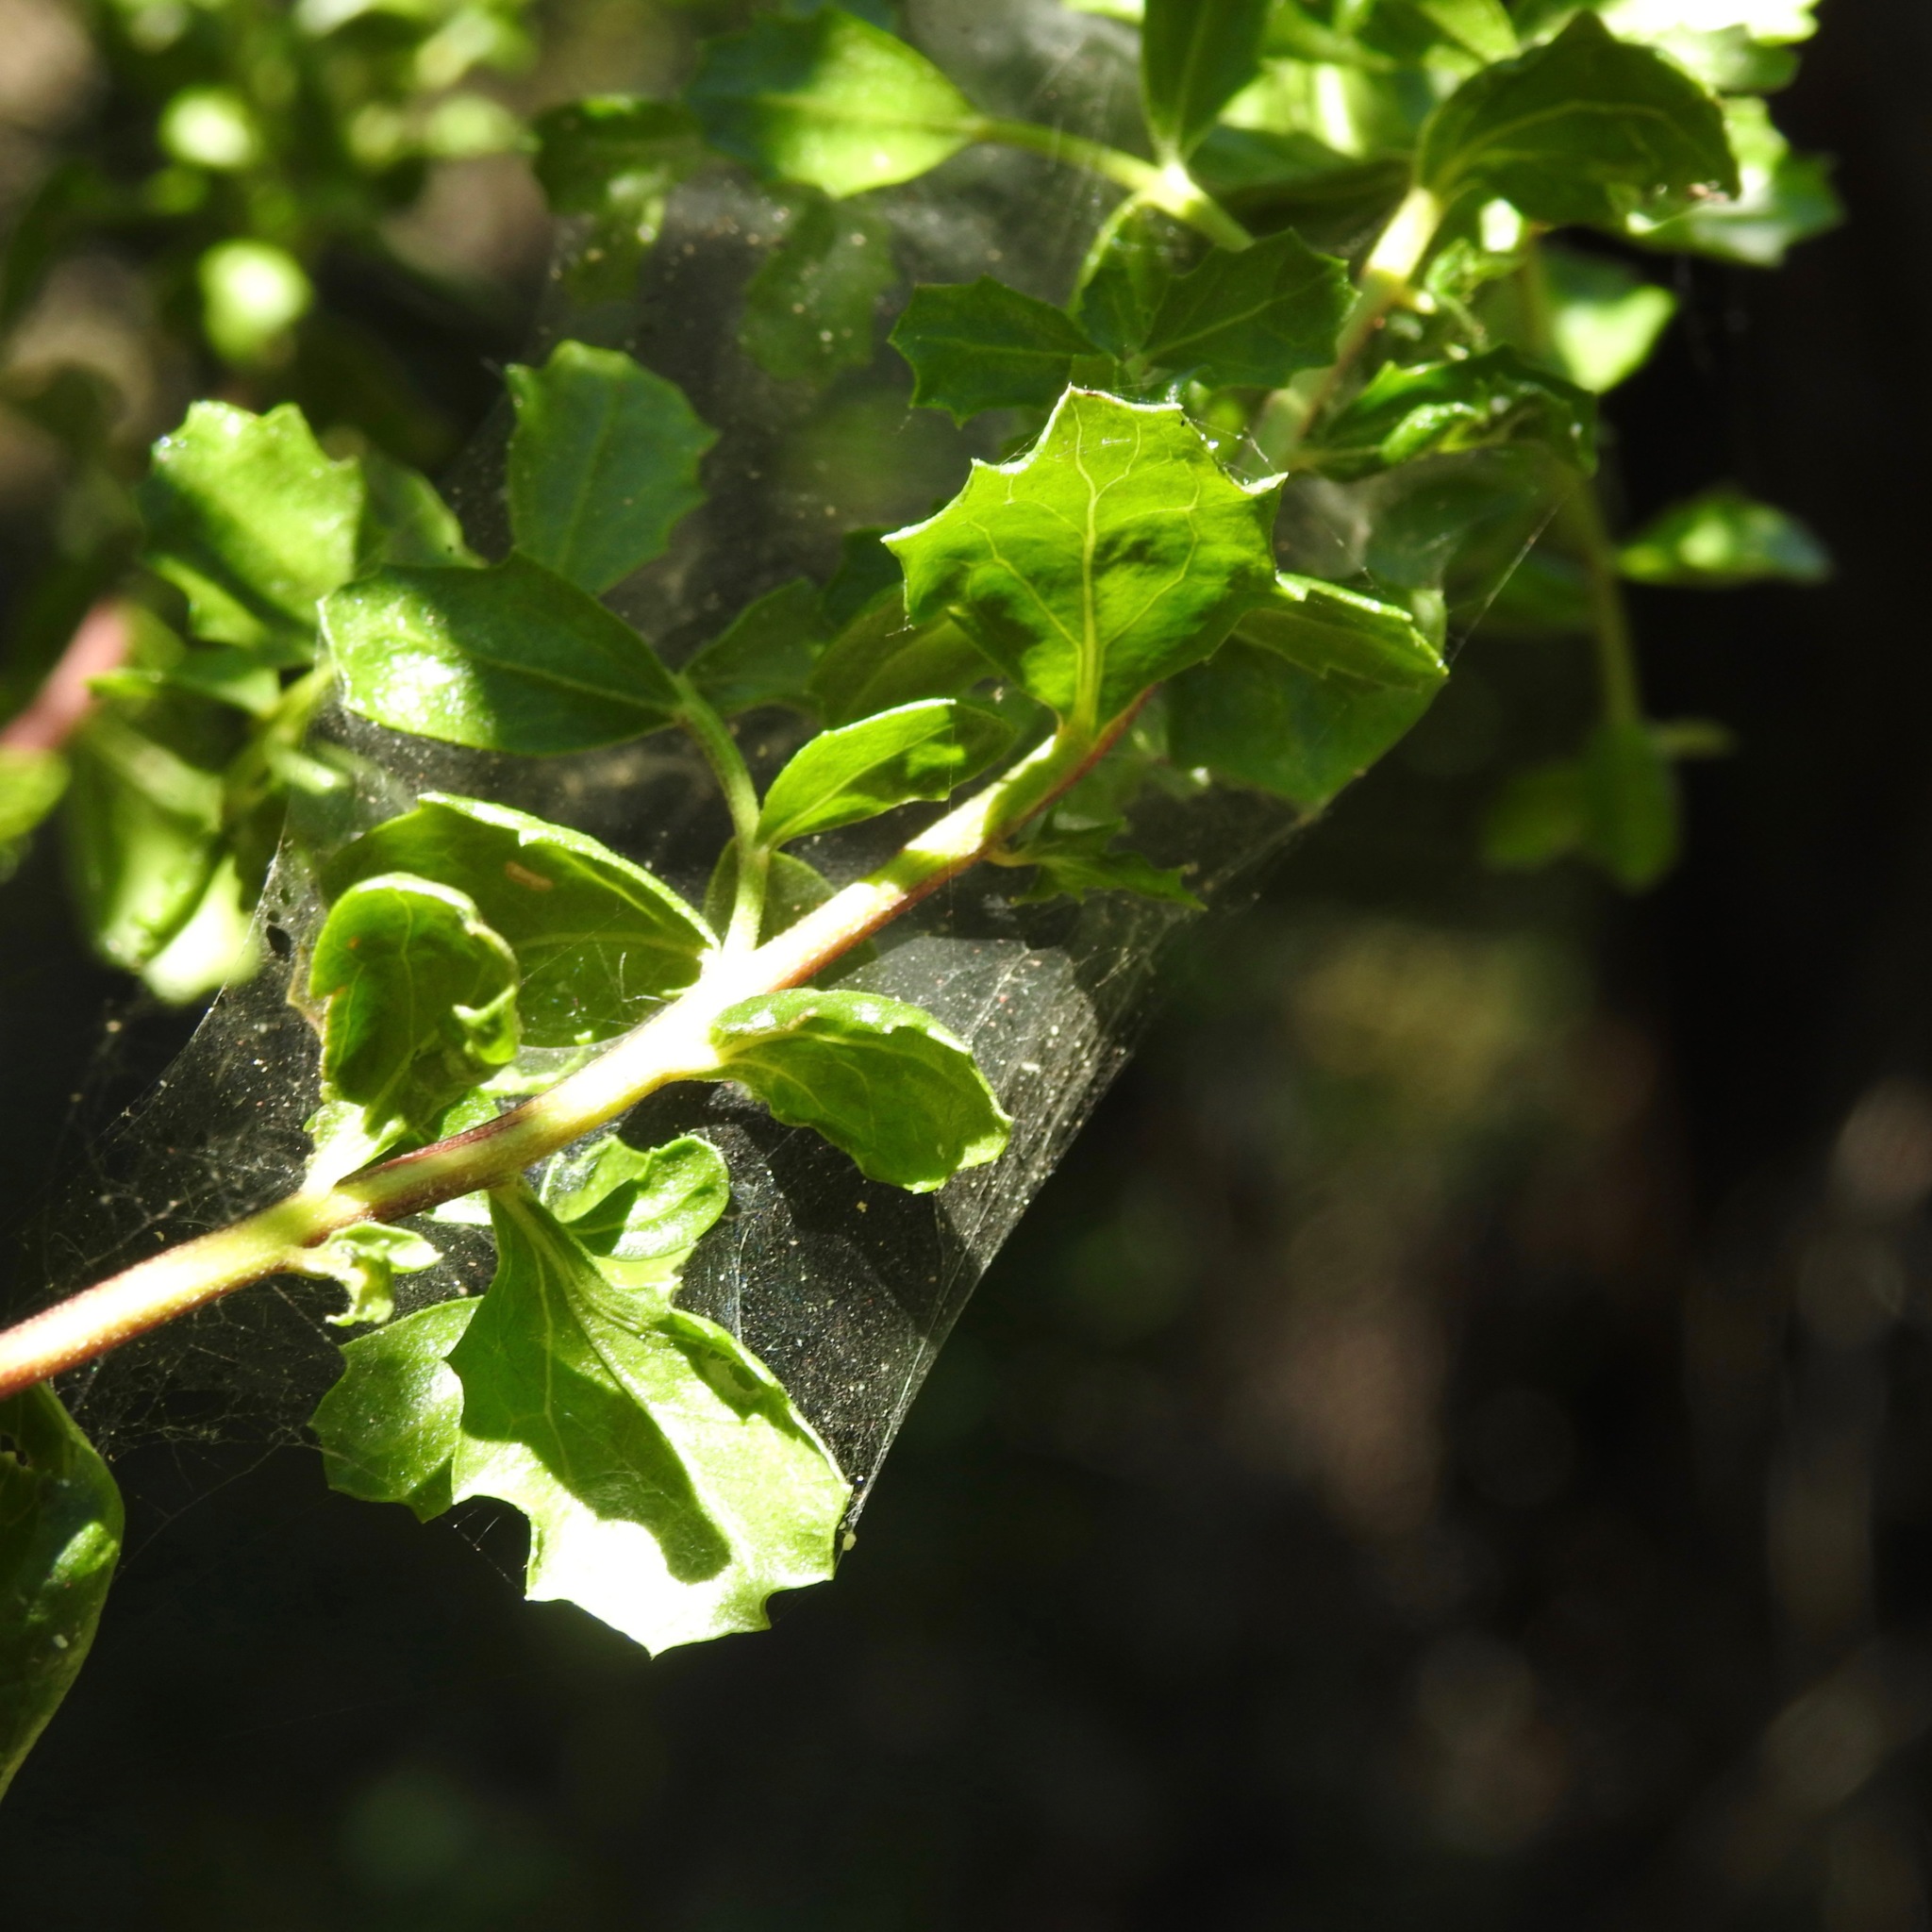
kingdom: Plantae
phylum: Tracheophyta
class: Magnoliopsida
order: Asterales
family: Asteraceae
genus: Baccharis
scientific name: Baccharis pilularis
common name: Coyotebrush
